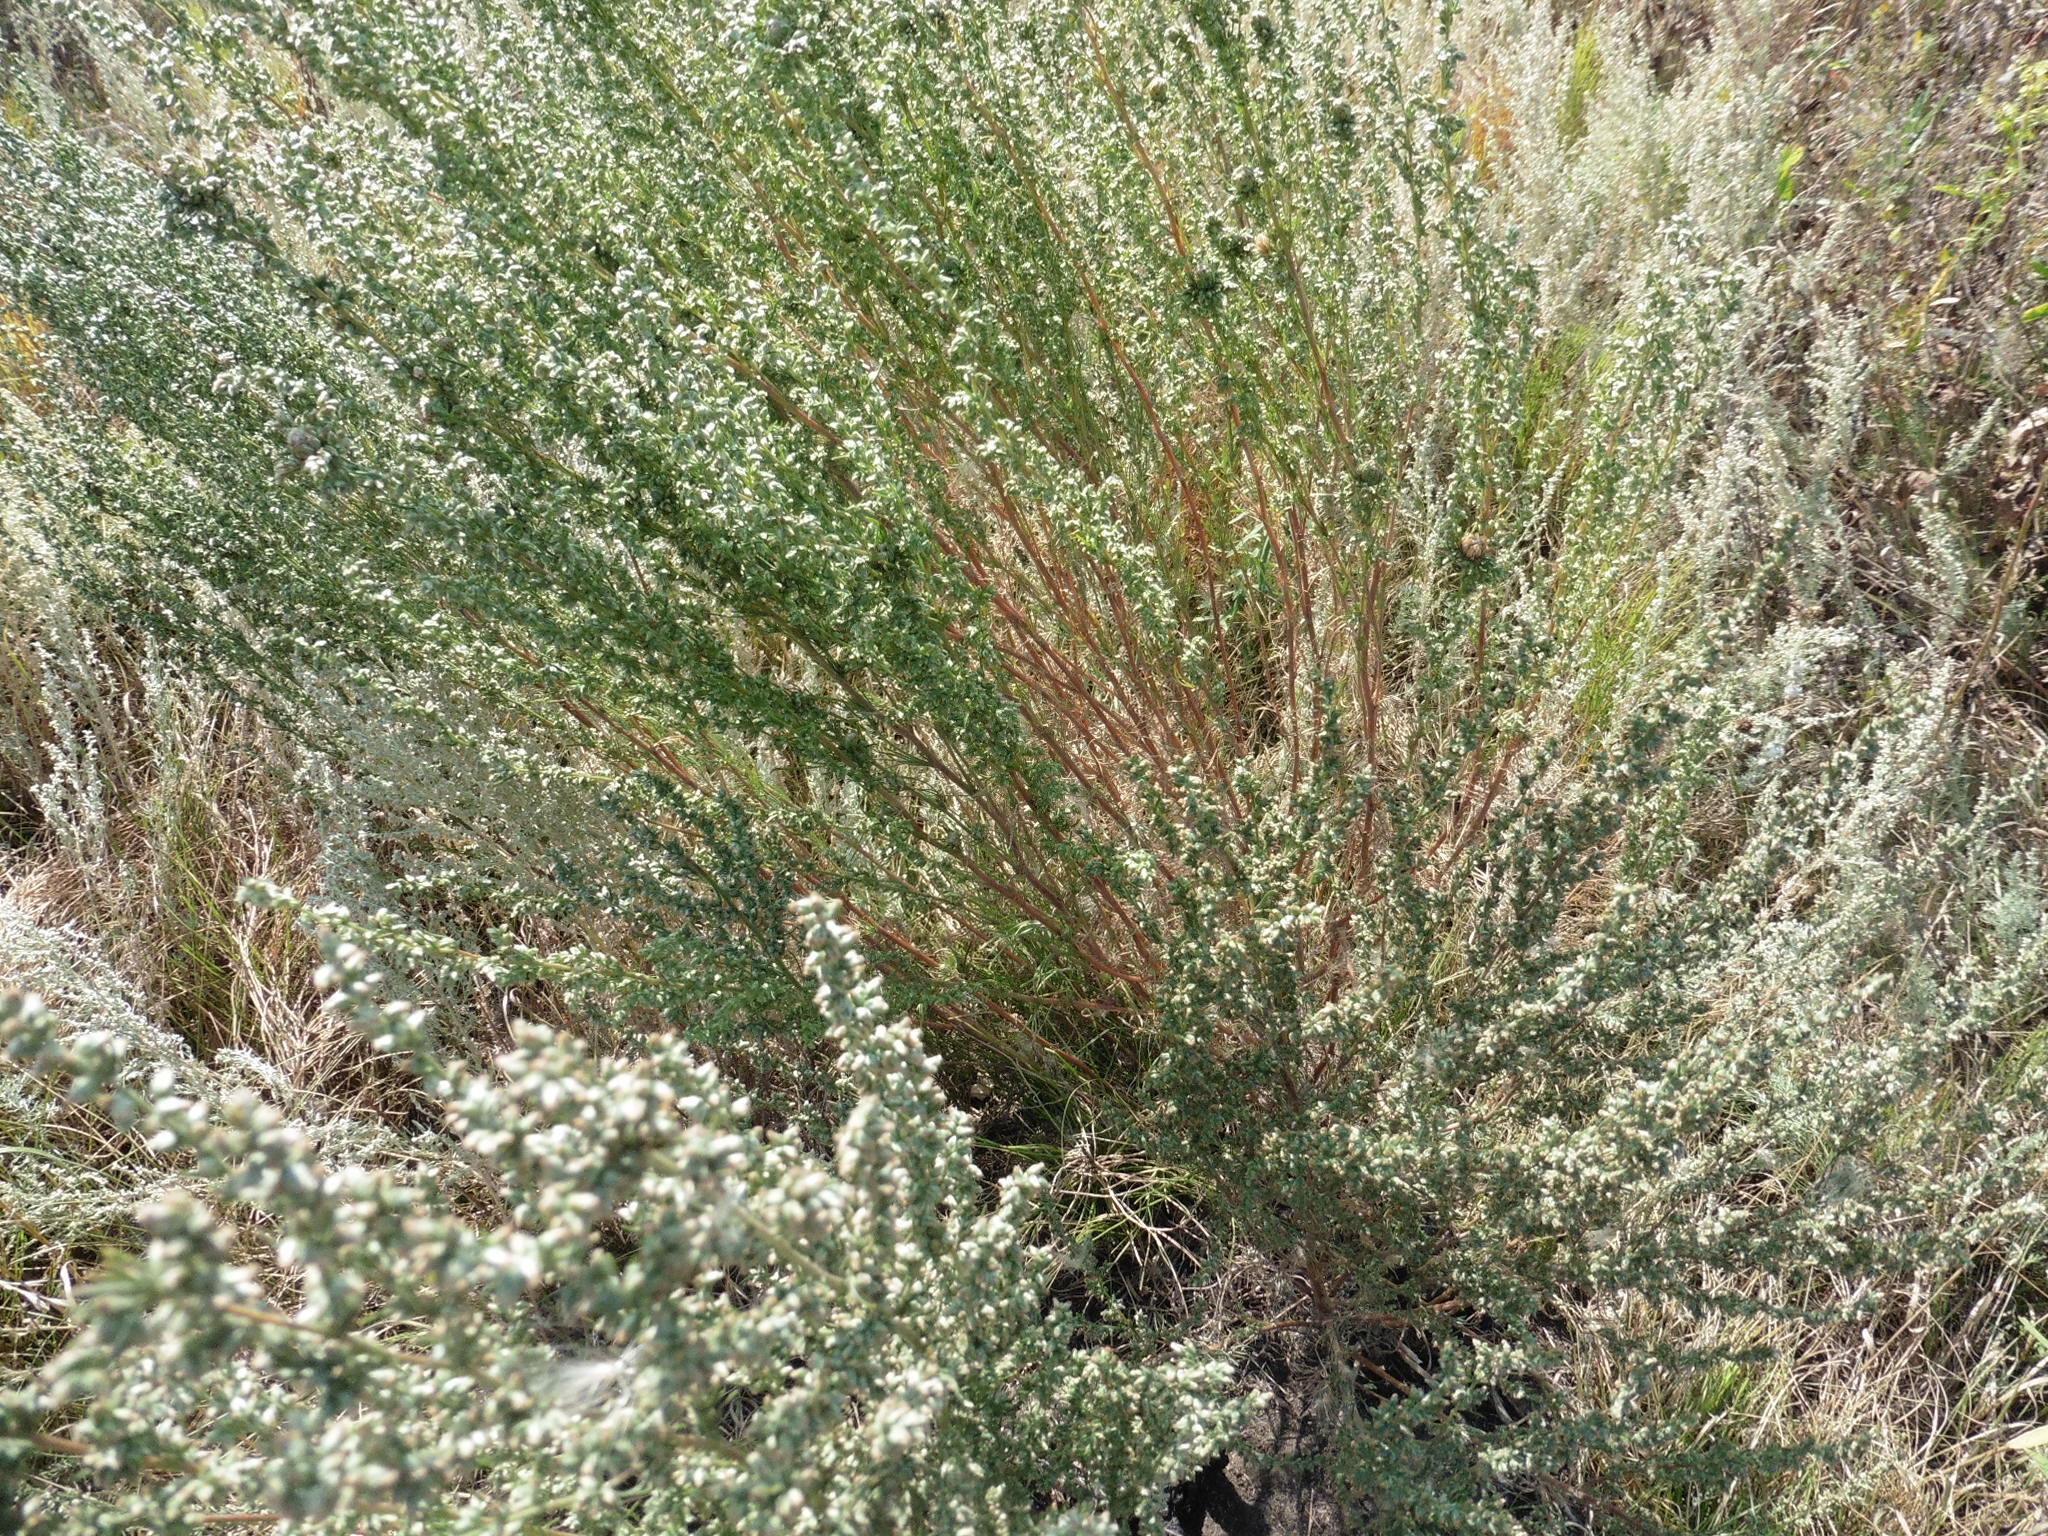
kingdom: Plantae
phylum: Tracheophyta
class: Magnoliopsida
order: Asterales
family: Asteraceae
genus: Artemisia
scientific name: Artemisia campestris
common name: Field wormwood
